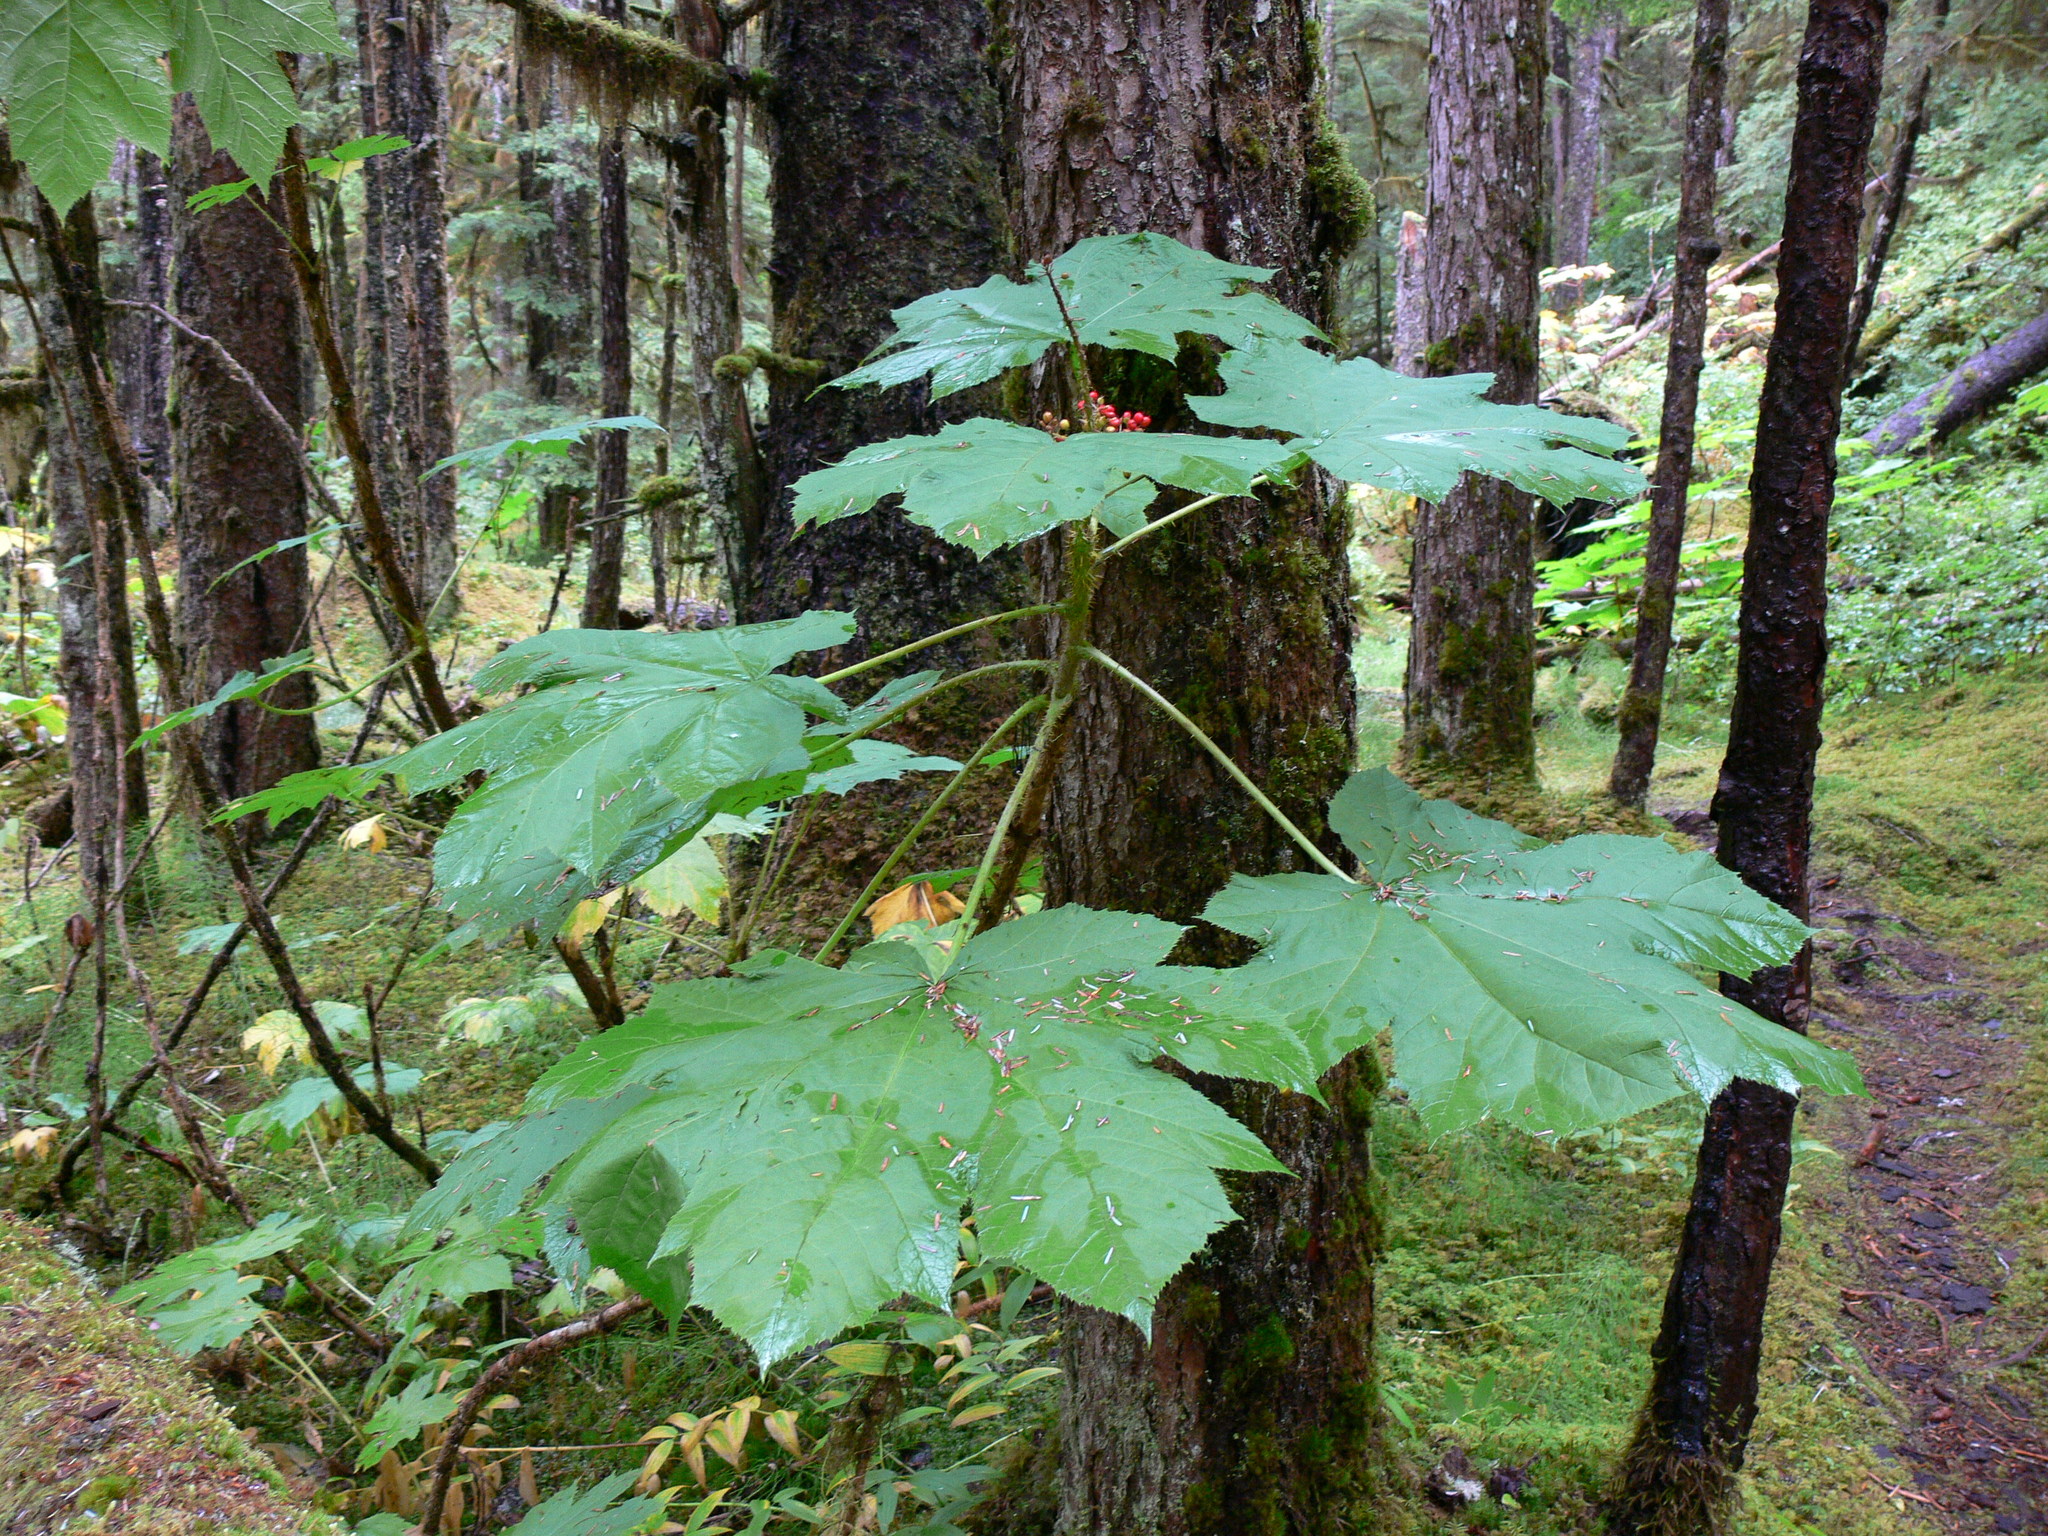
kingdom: Plantae
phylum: Tracheophyta
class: Magnoliopsida
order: Apiales
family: Araliaceae
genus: Oplopanax
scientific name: Oplopanax horridus
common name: Devil's walking-stick
